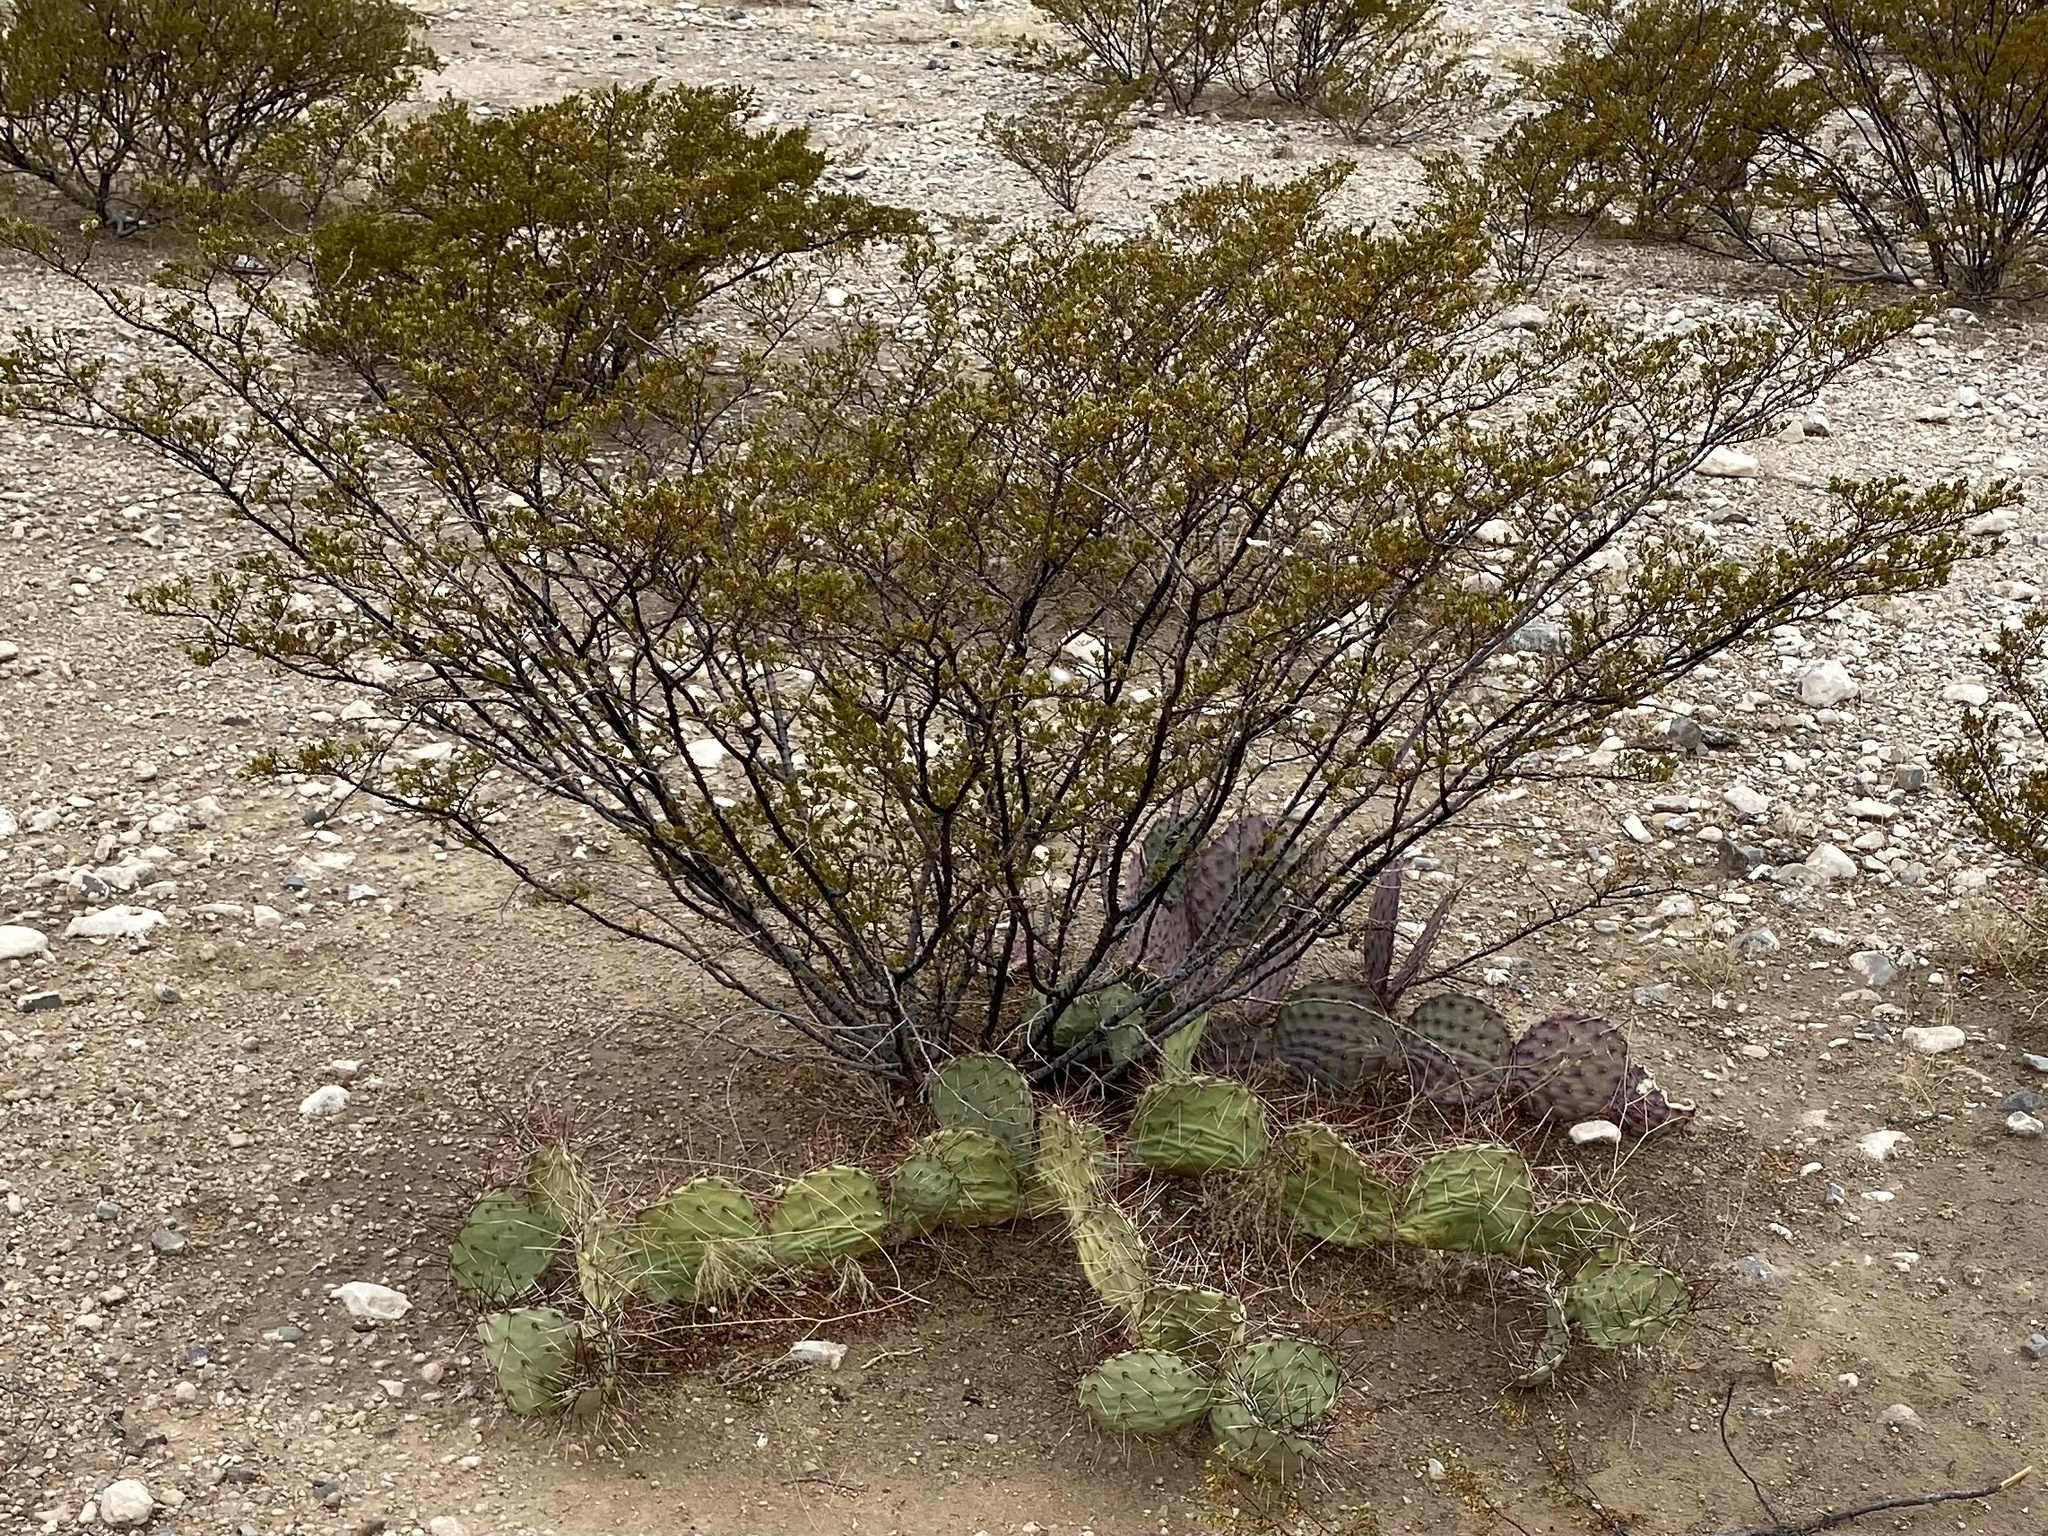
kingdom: Plantae
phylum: Tracheophyta
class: Magnoliopsida
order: Zygophyllales
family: Zygophyllaceae
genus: Larrea
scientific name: Larrea tridentata
